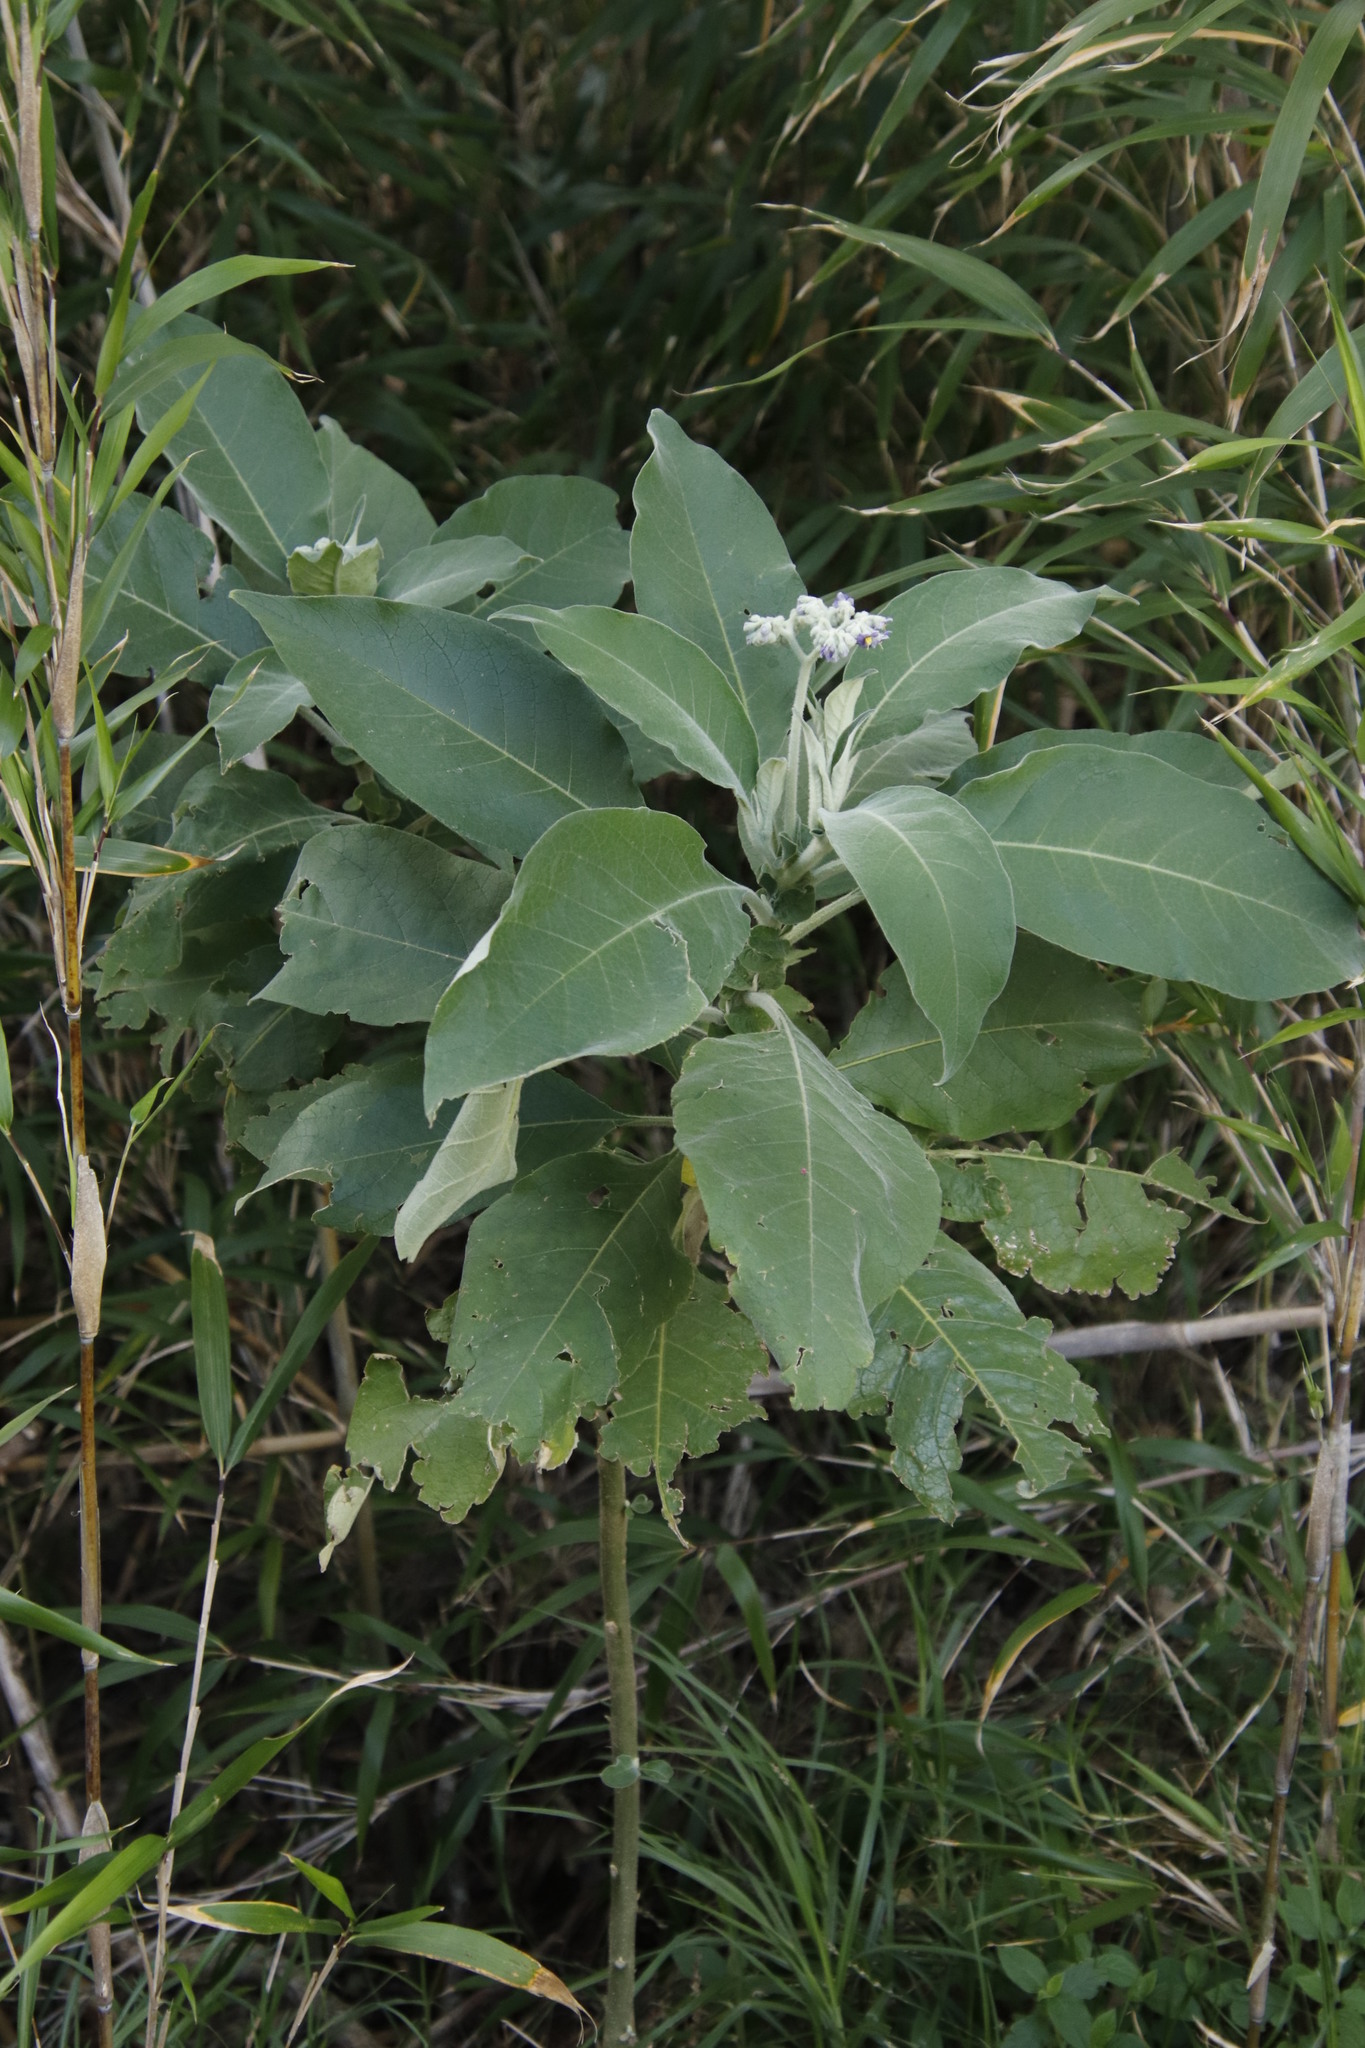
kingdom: Plantae
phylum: Tracheophyta
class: Magnoliopsida
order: Solanales
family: Solanaceae
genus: Solanum
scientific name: Solanum mauritianum
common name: Earleaf nightshade
